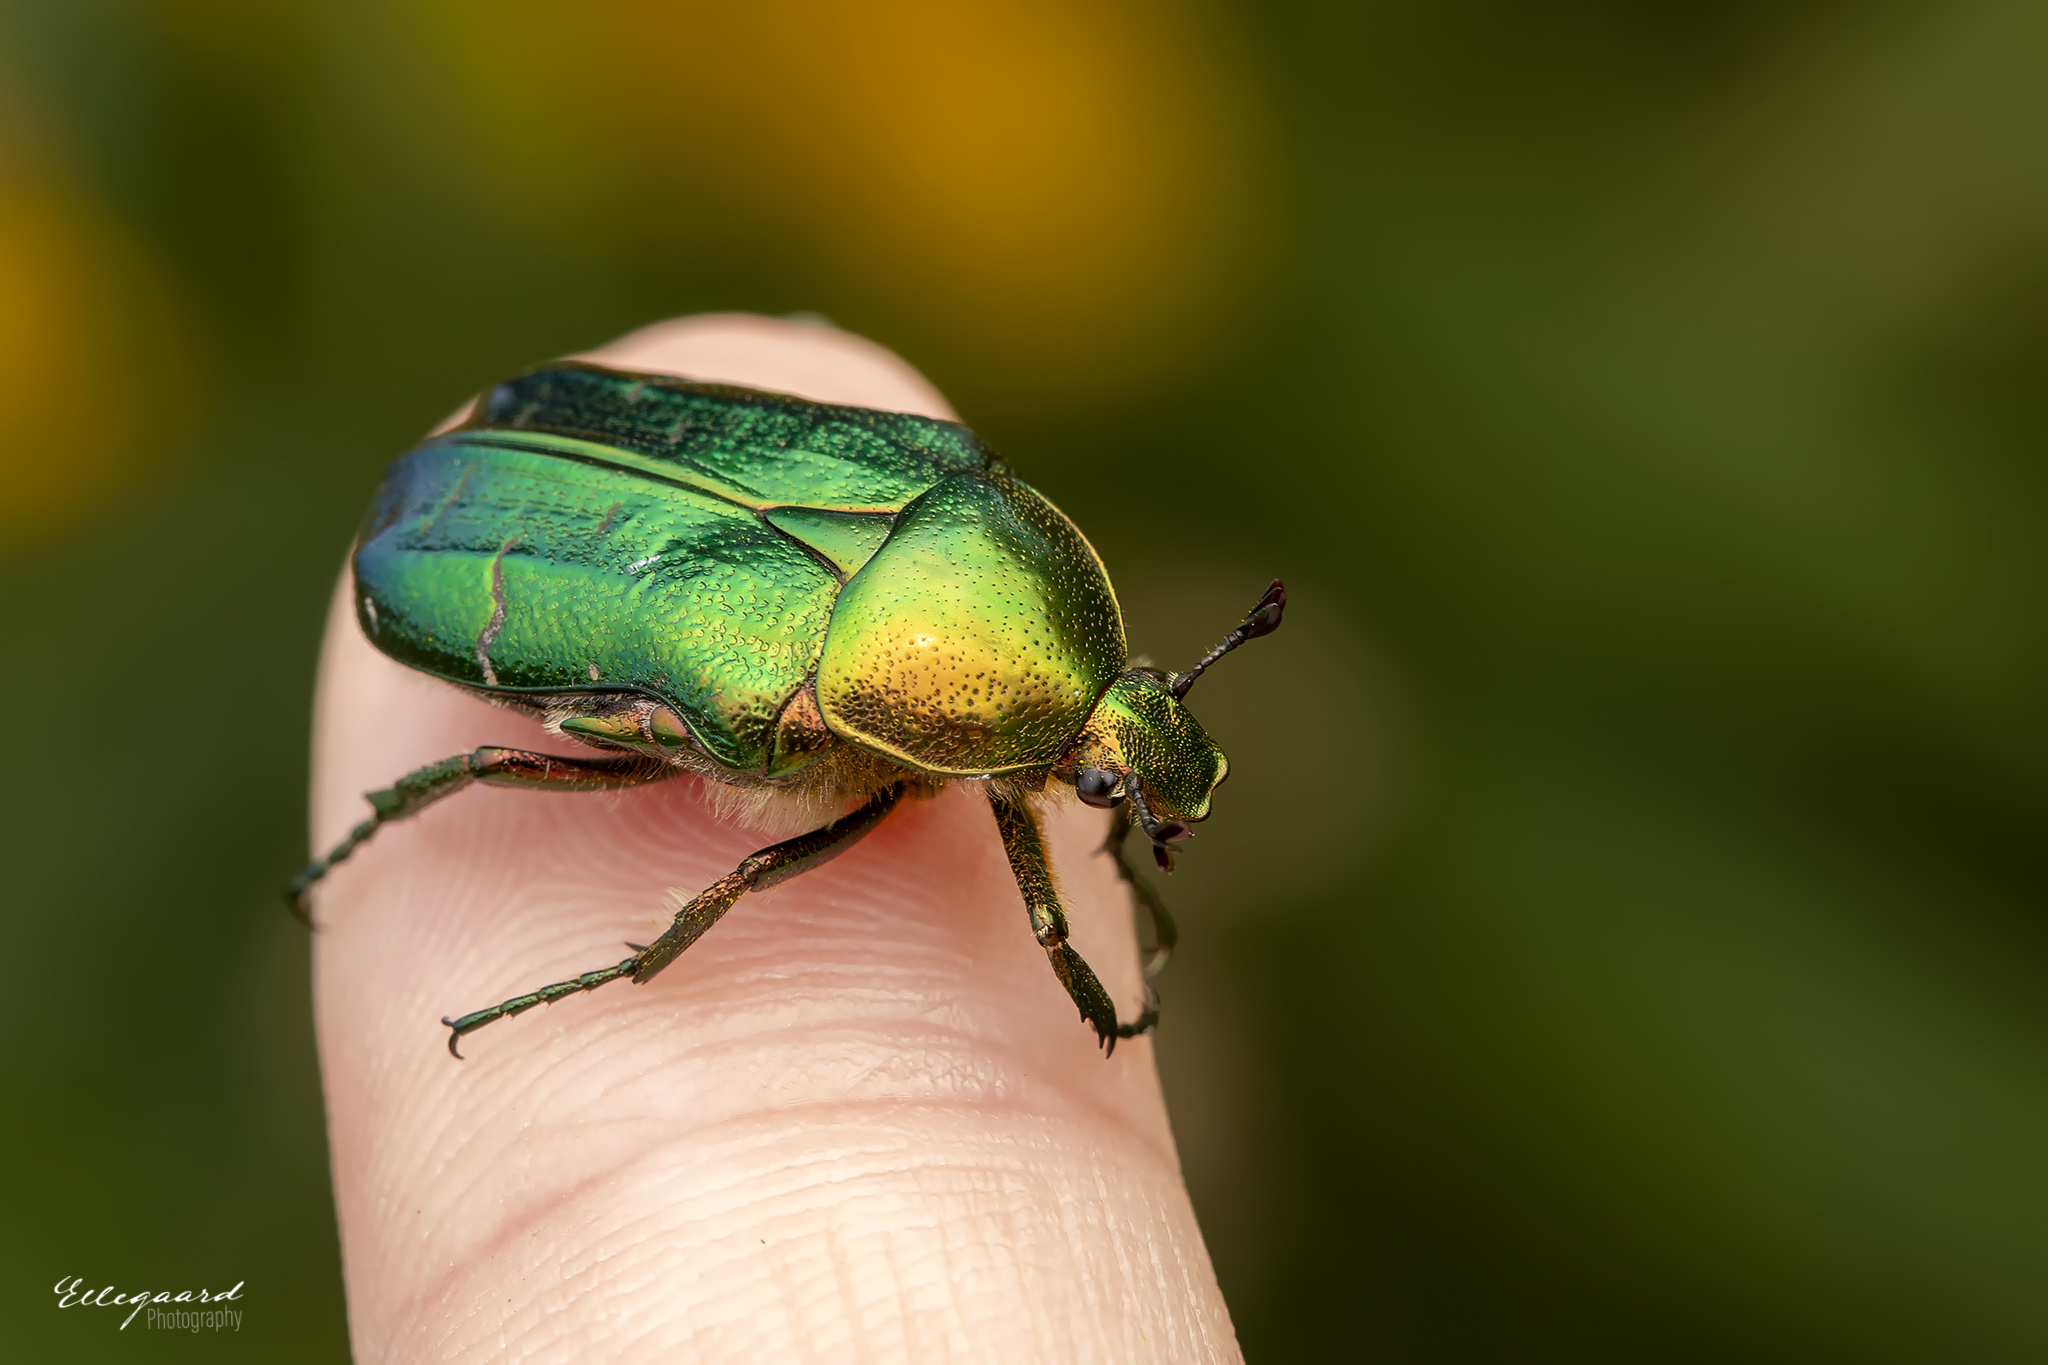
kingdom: Animalia
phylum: Arthropoda
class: Insecta
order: Coleoptera
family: Scarabaeidae
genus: Cetonia
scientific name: Cetonia aurata
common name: Rose chafer
